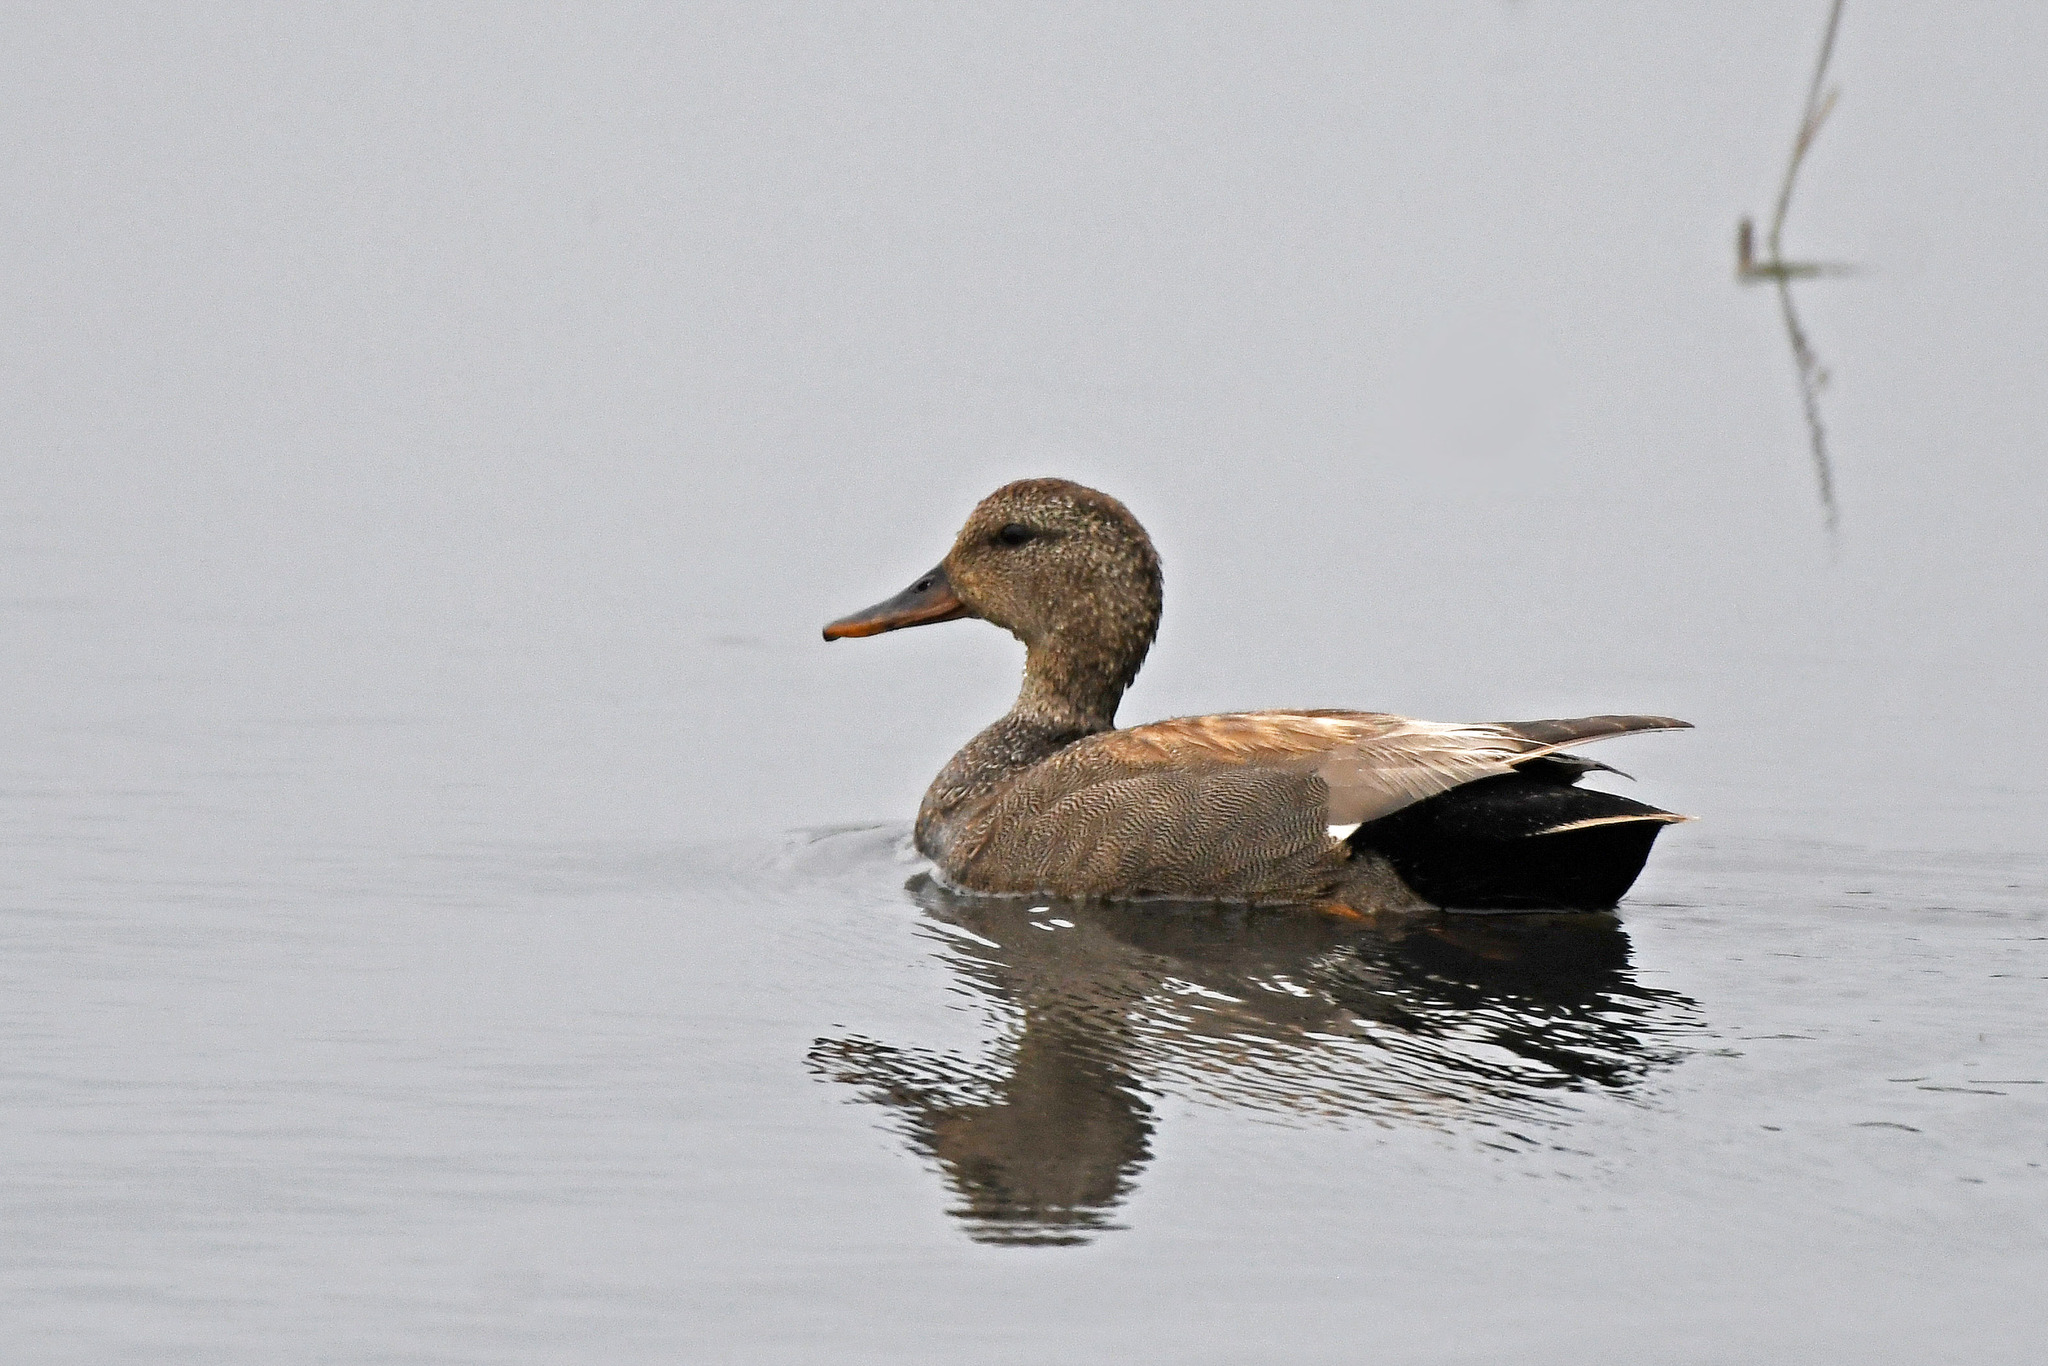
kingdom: Animalia
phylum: Chordata
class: Aves
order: Anseriformes
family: Anatidae
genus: Mareca
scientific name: Mareca strepera
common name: Gadwall
